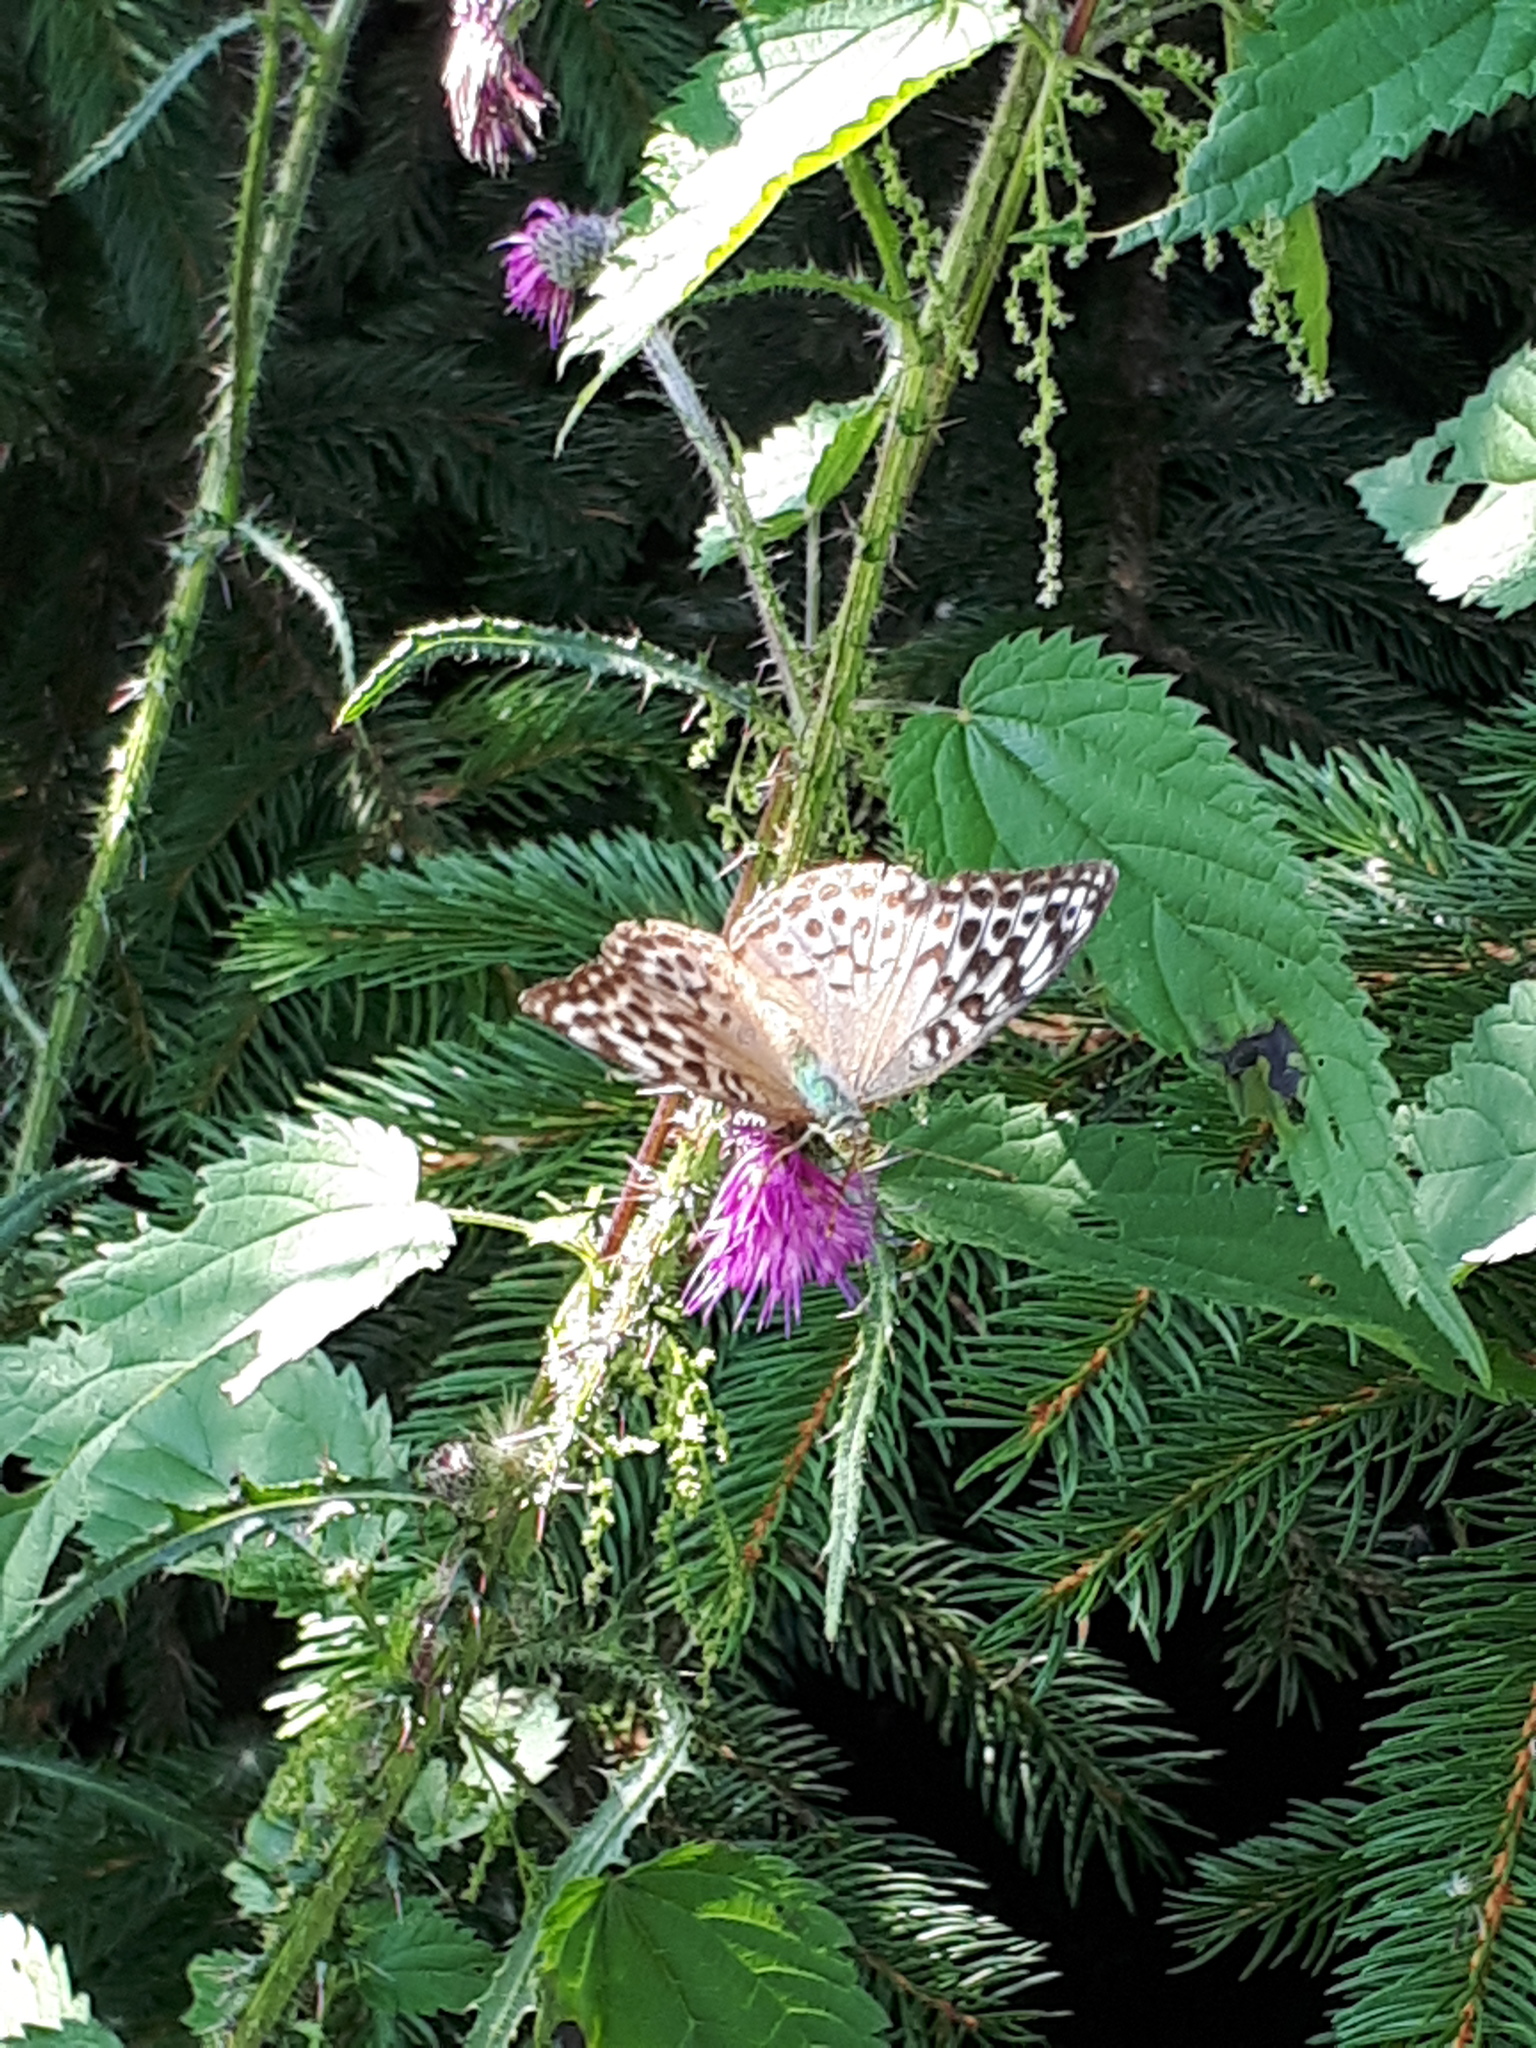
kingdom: Animalia
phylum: Arthropoda
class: Insecta
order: Lepidoptera
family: Nymphalidae
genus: Argynnis
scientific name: Argynnis paphia
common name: Silver-washed fritillary
